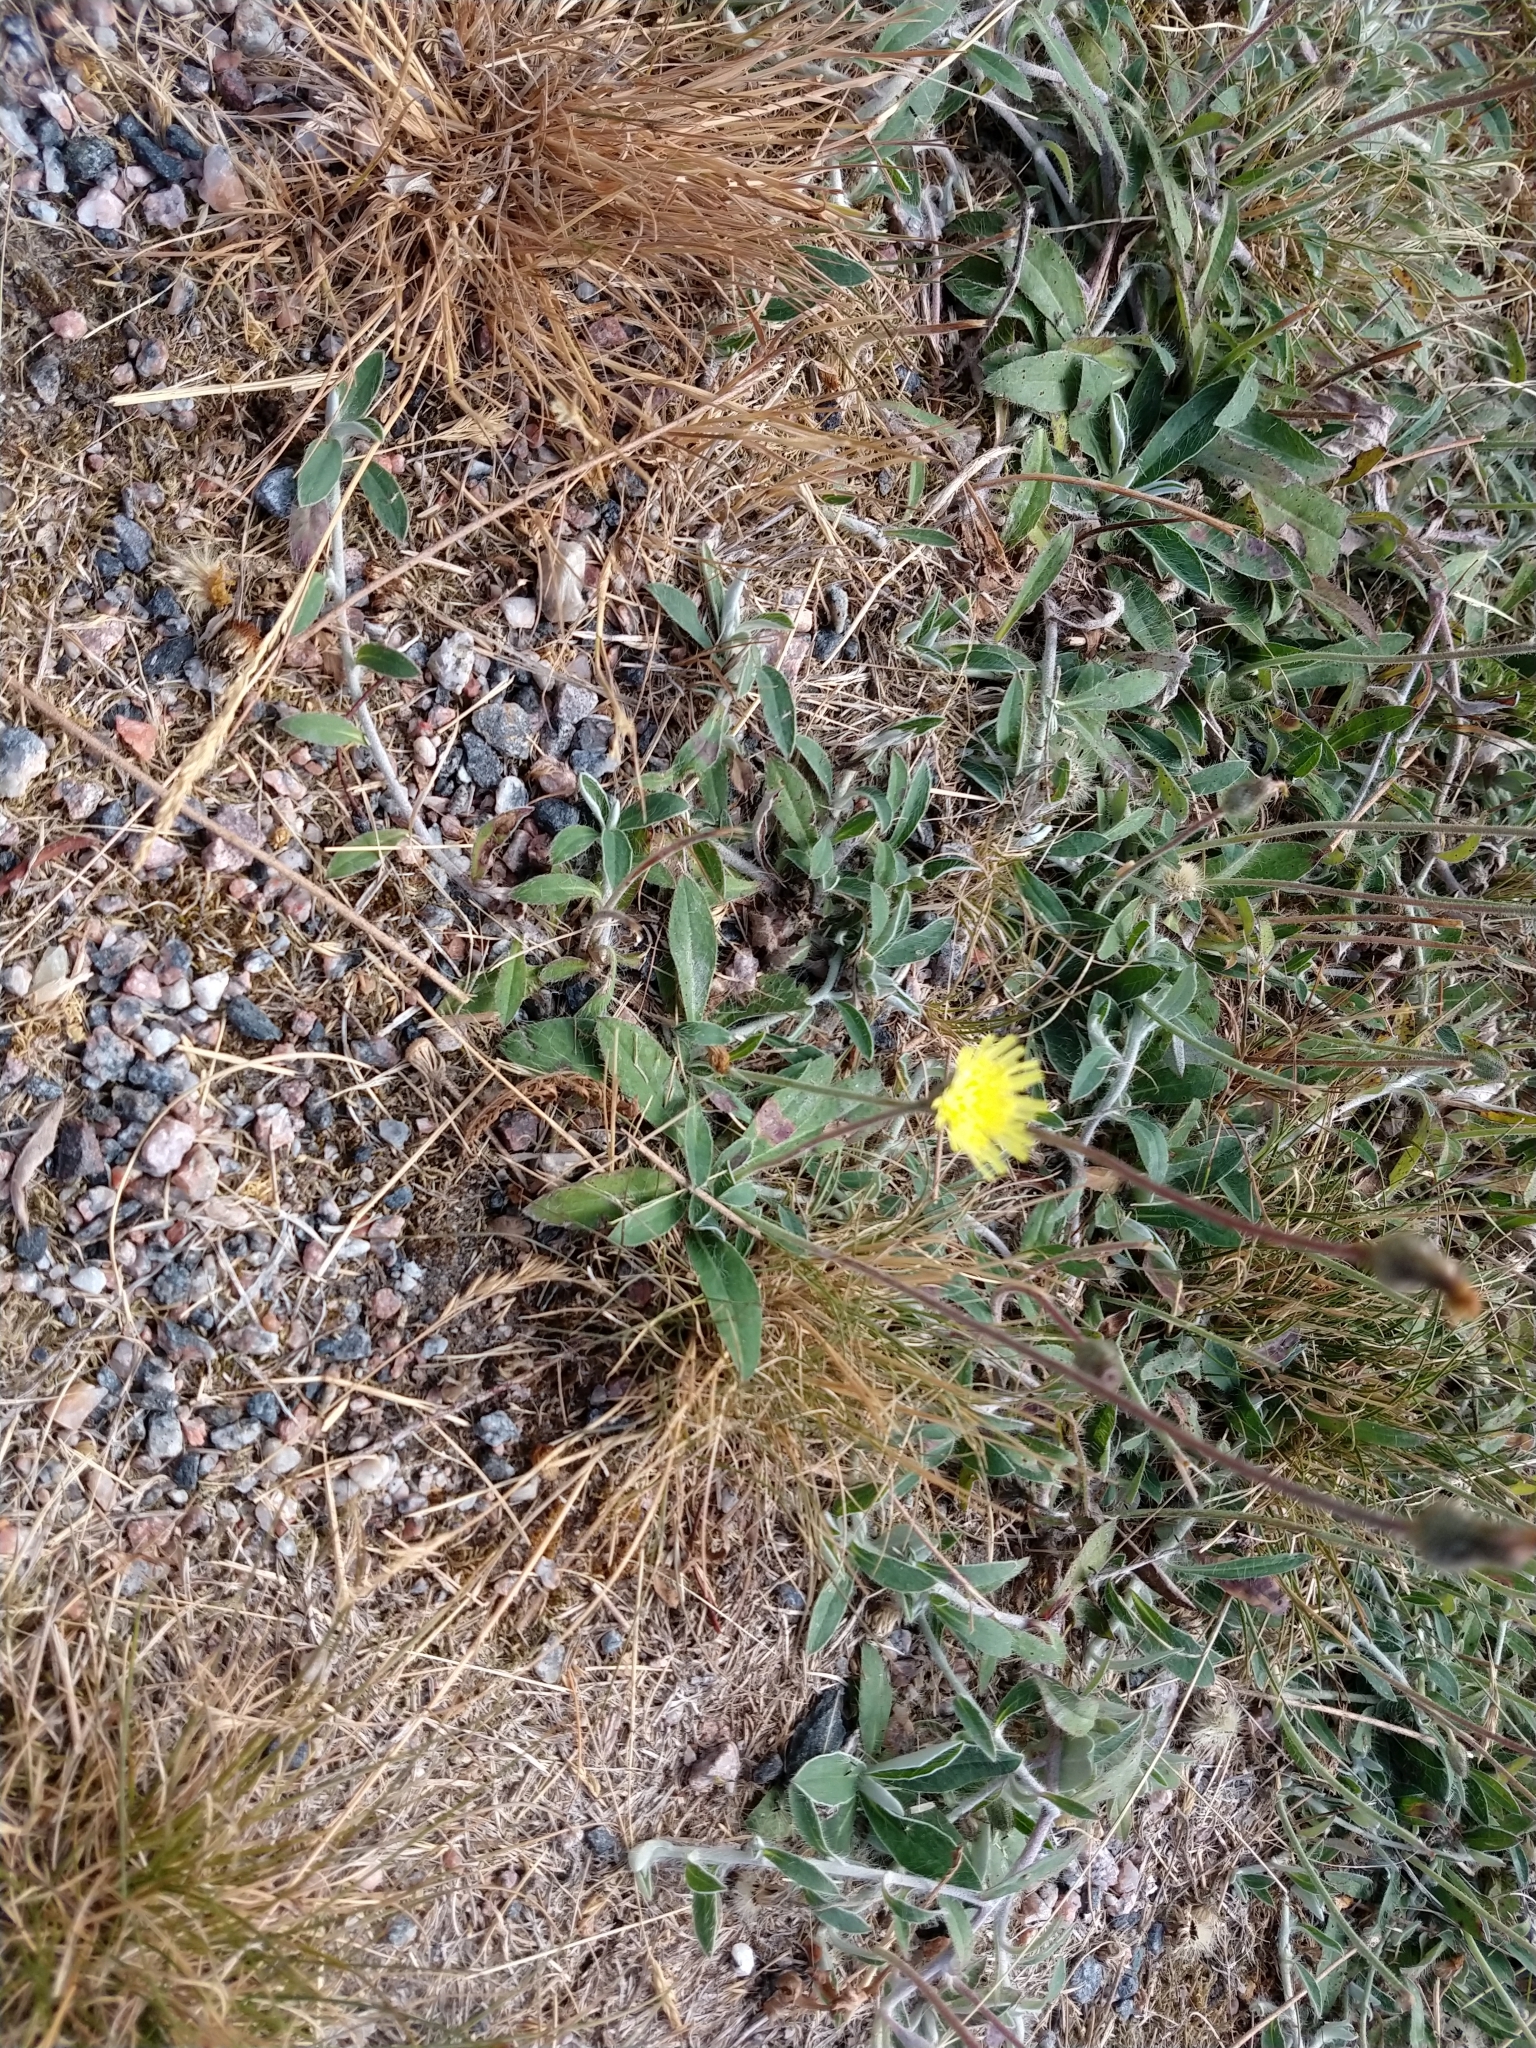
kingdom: Plantae
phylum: Tracheophyta
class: Magnoliopsida
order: Asterales
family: Asteraceae
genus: Pilosella
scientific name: Pilosella officinarum
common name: Mouse-ear hawkweed
